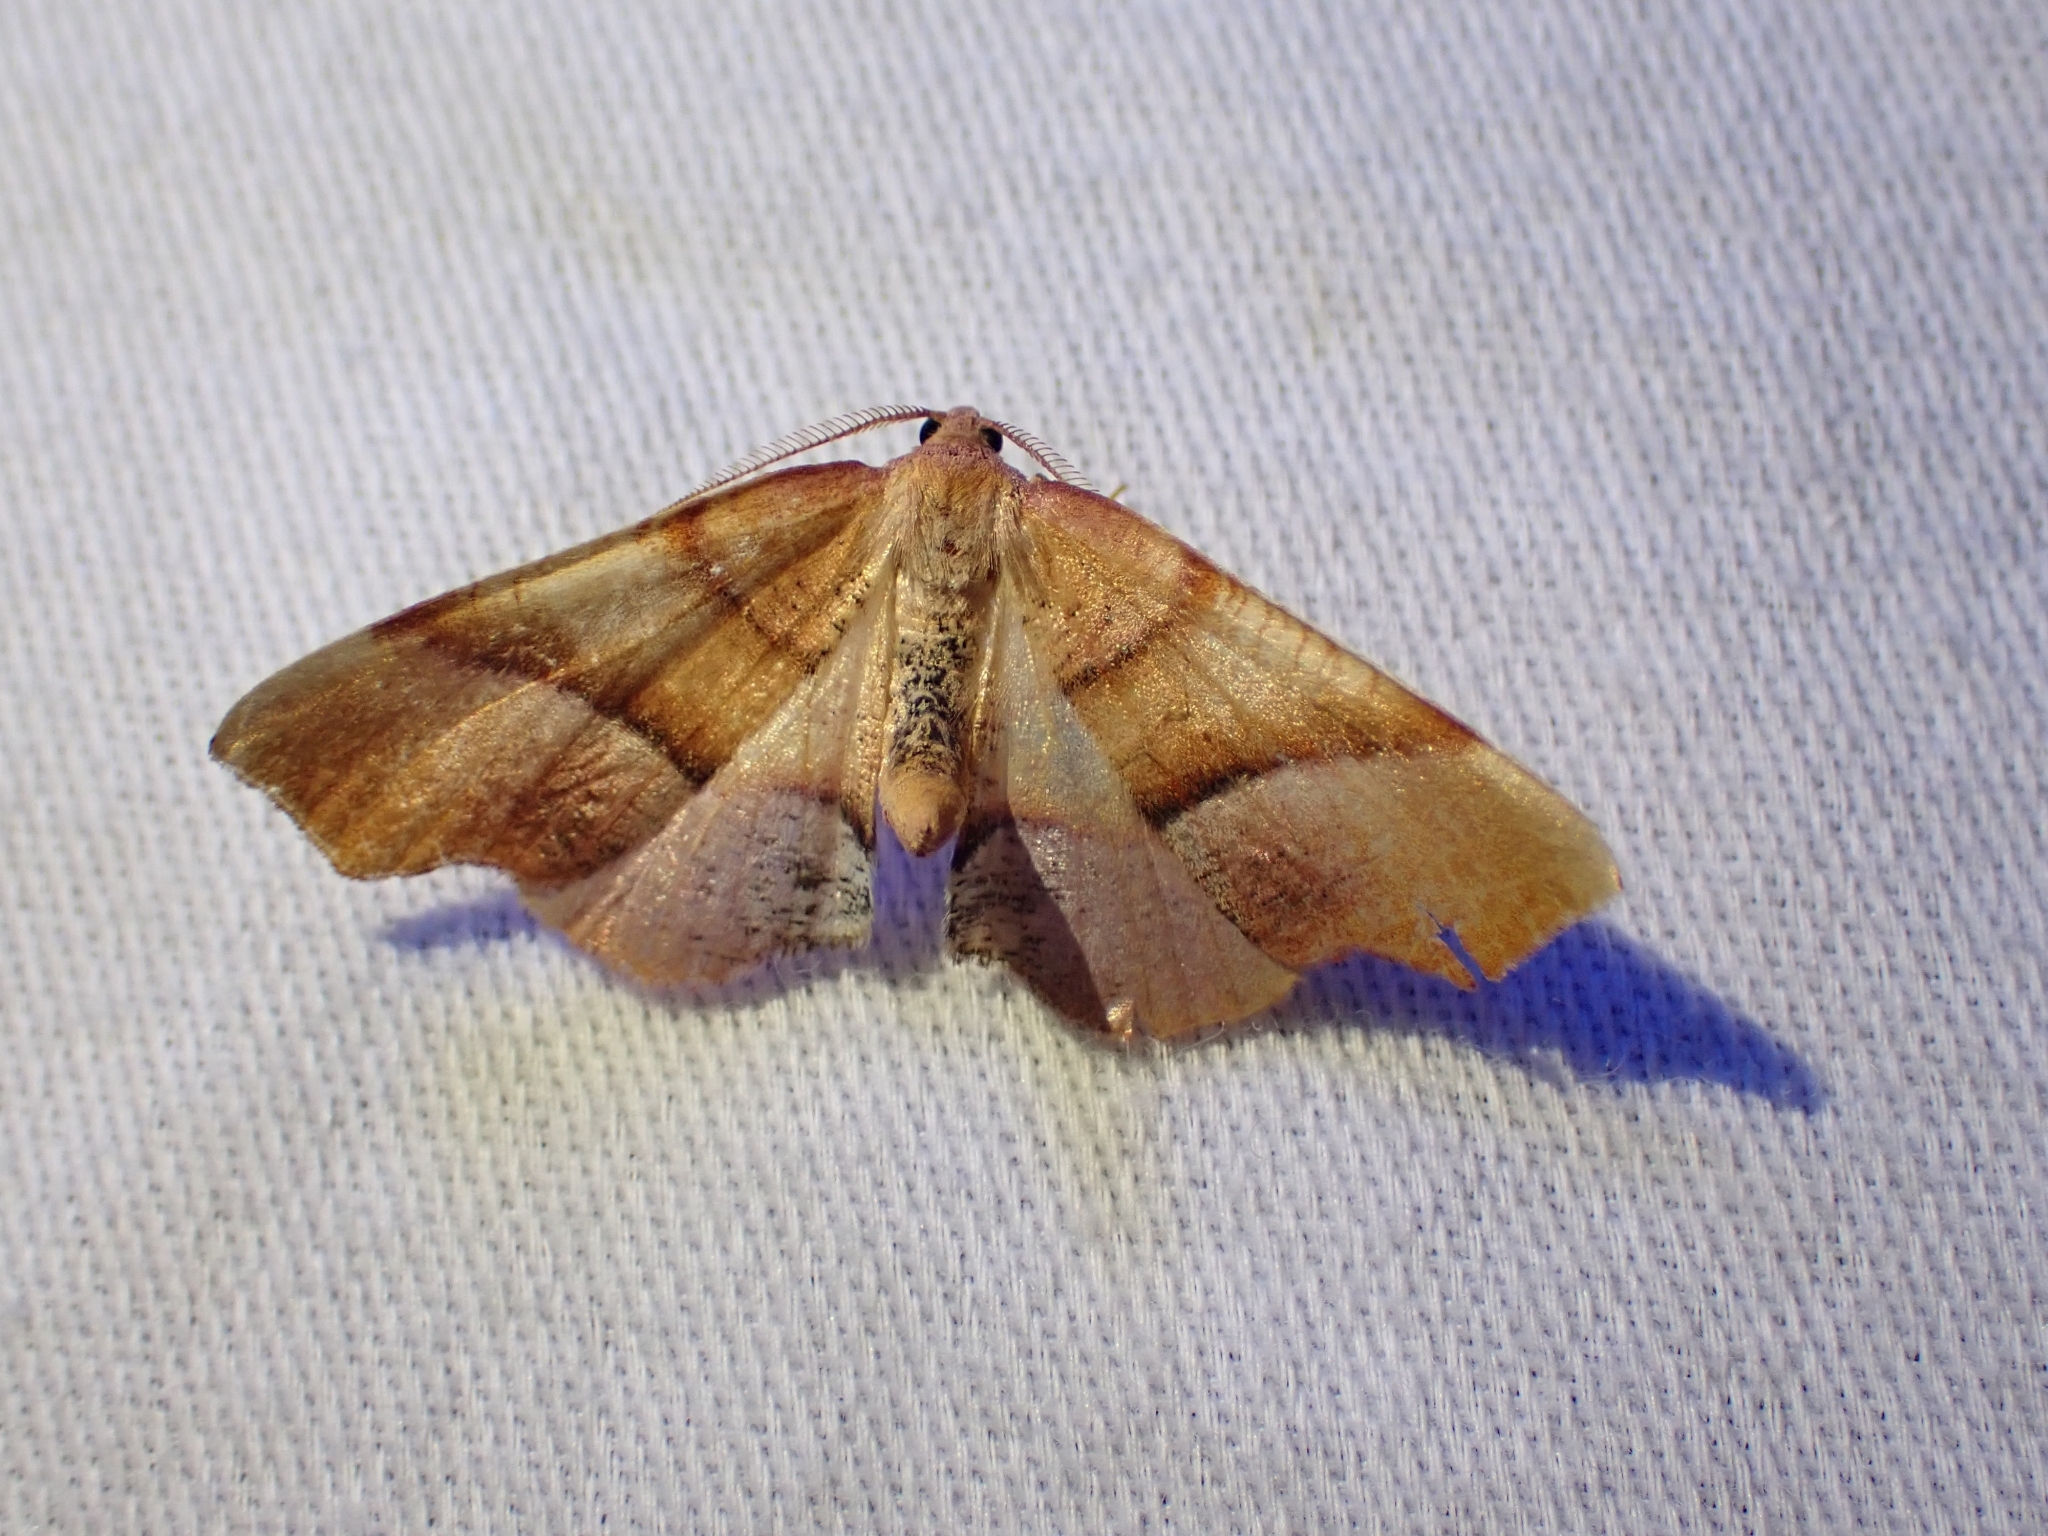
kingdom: Animalia
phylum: Arthropoda
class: Insecta
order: Lepidoptera
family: Geometridae
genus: Plagodis
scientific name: Plagodis phlogosaria
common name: Straight-lined plagodis
